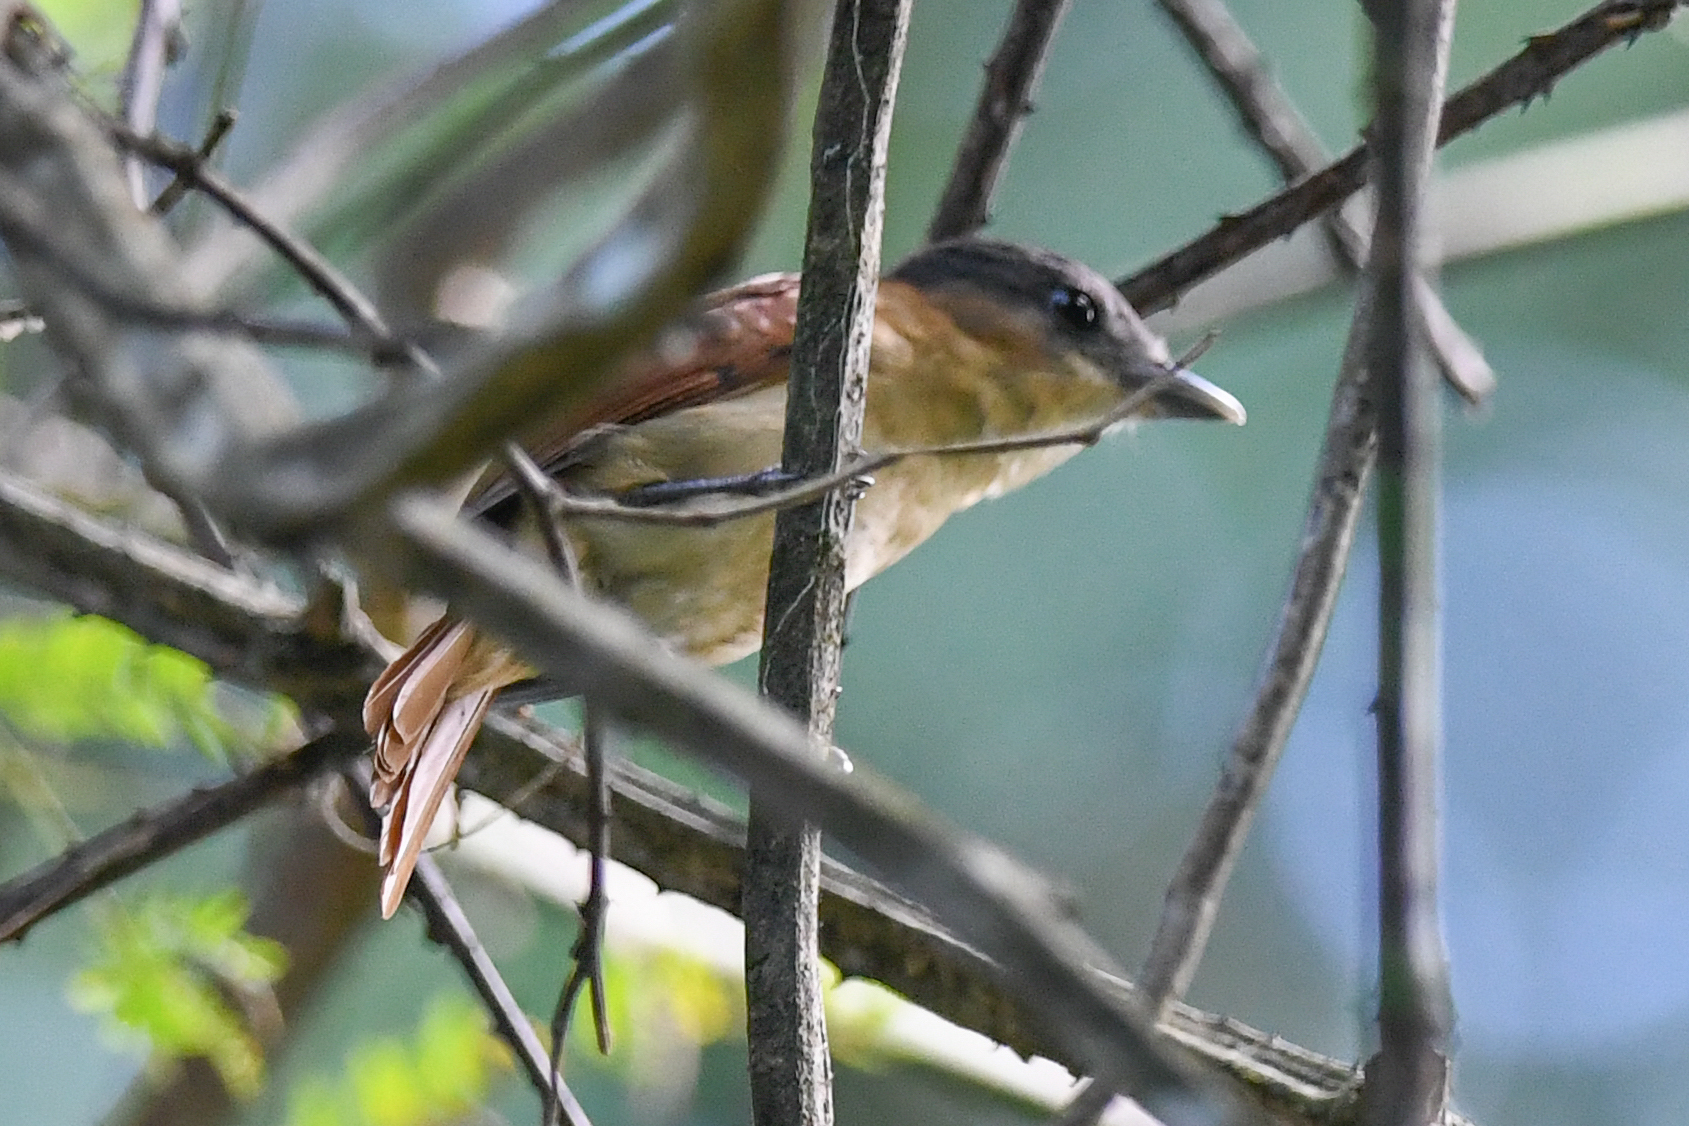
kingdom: Animalia
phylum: Chordata
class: Aves
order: Passeriformes
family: Cotingidae
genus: Pachyramphus
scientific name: Pachyramphus aglaiae
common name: Rose-throated becard
